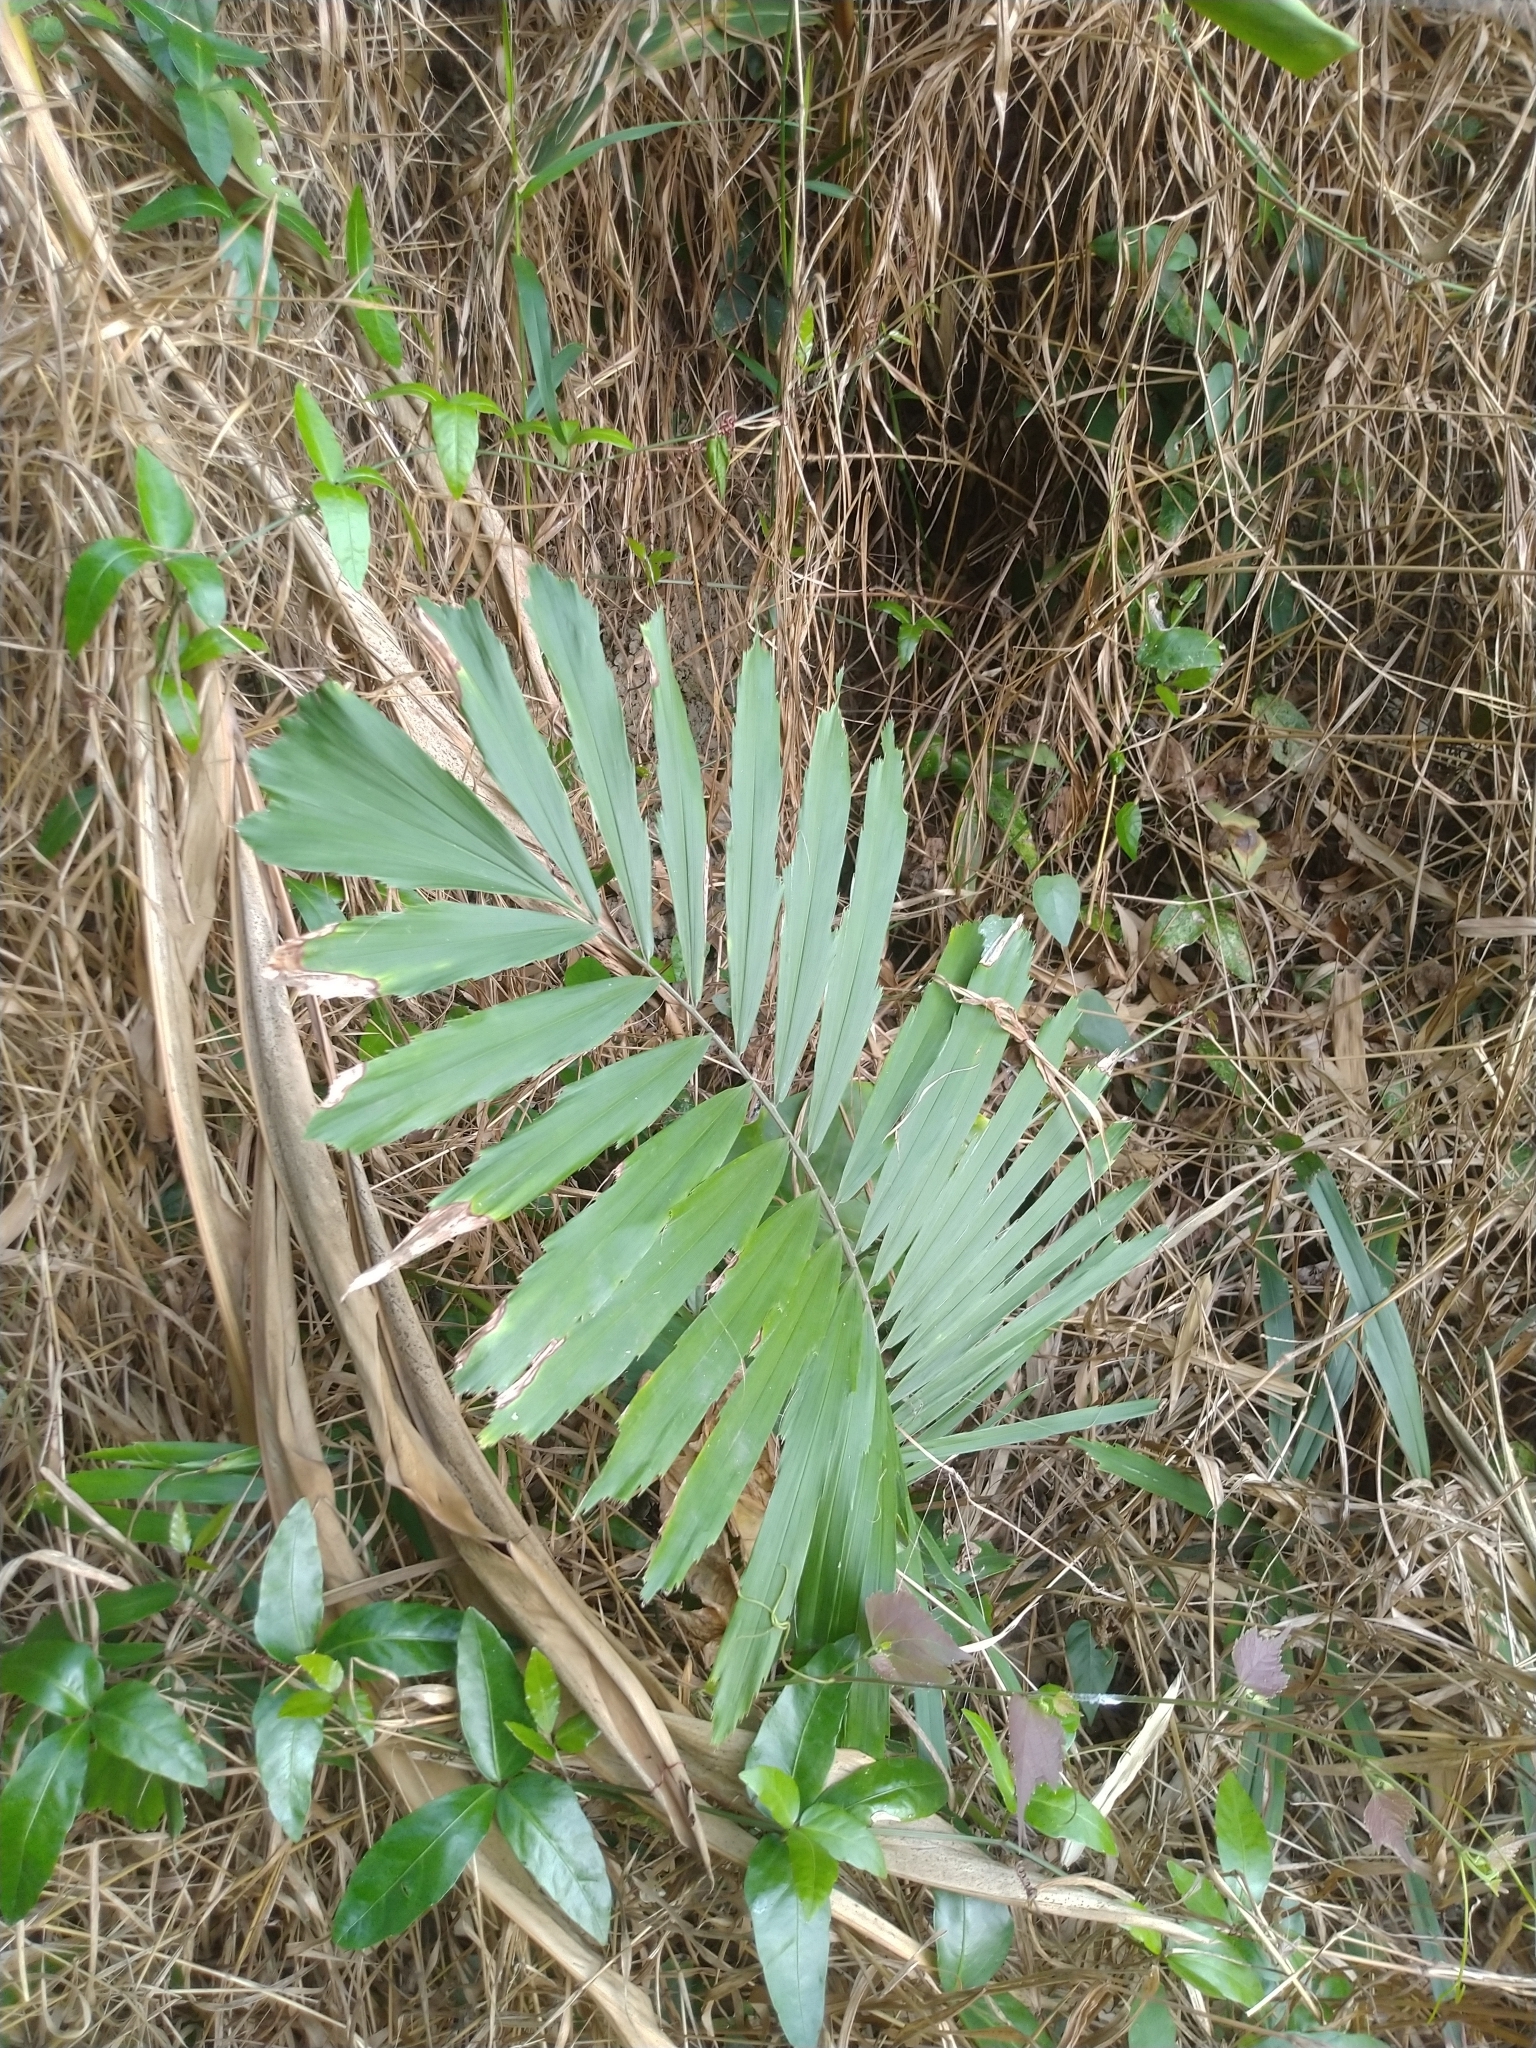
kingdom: Plantae
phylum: Tracheophyta
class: Liliopsida
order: Arecales
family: Arecaceae
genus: Arenga
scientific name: Arenga engleri
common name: Formosan sugar palm
